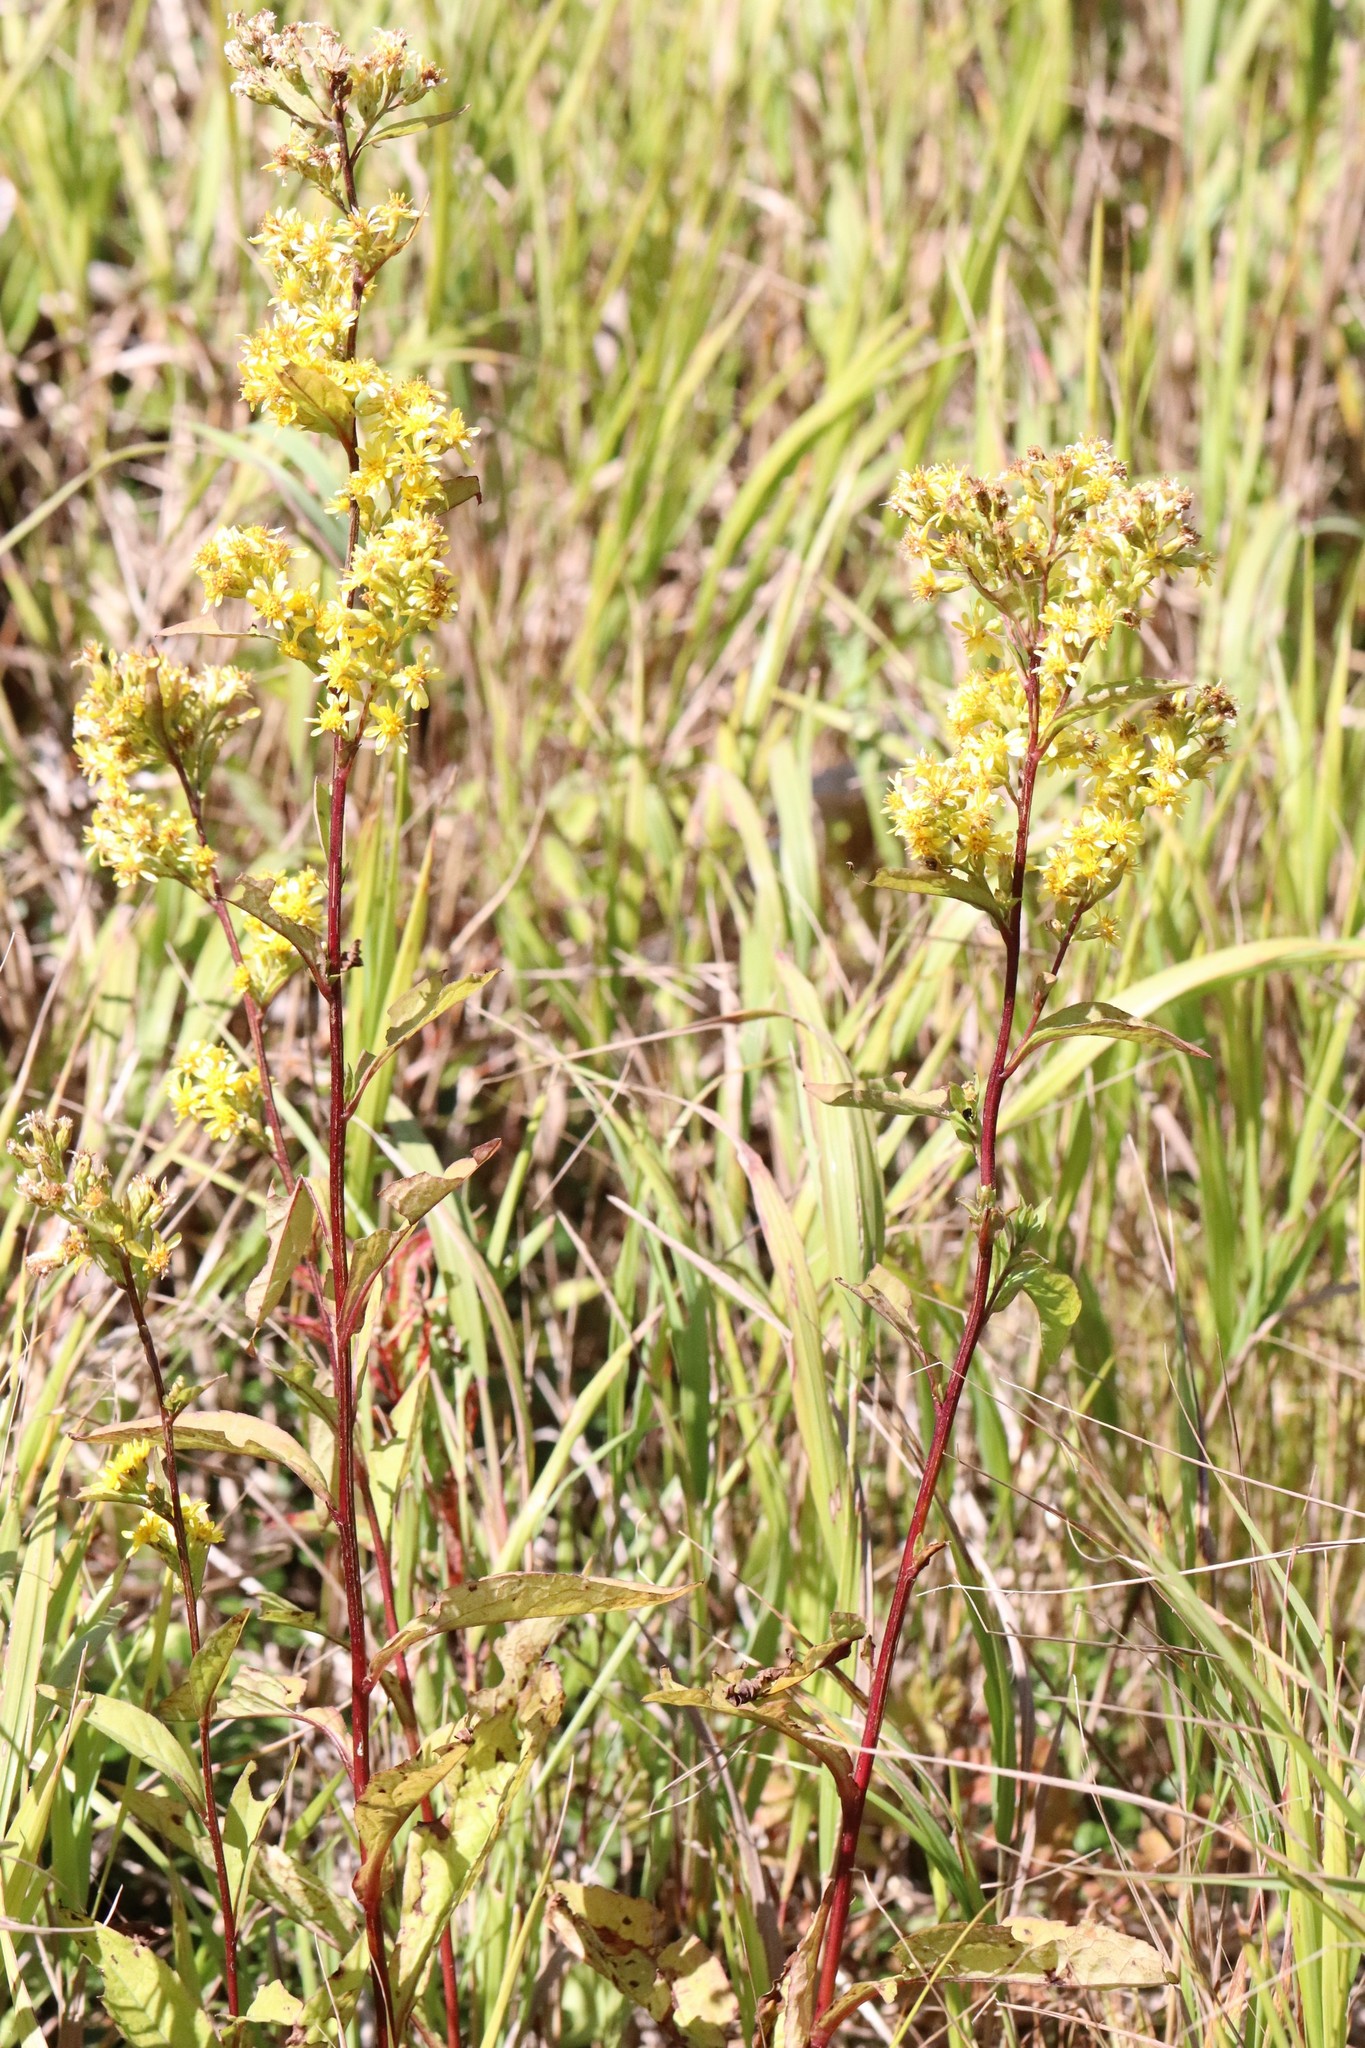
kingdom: Plantae
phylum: Tracheophyta
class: Magnoliopsida
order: Asterales
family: Asteraceae
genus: Solidago
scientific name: Solidago decurrens
